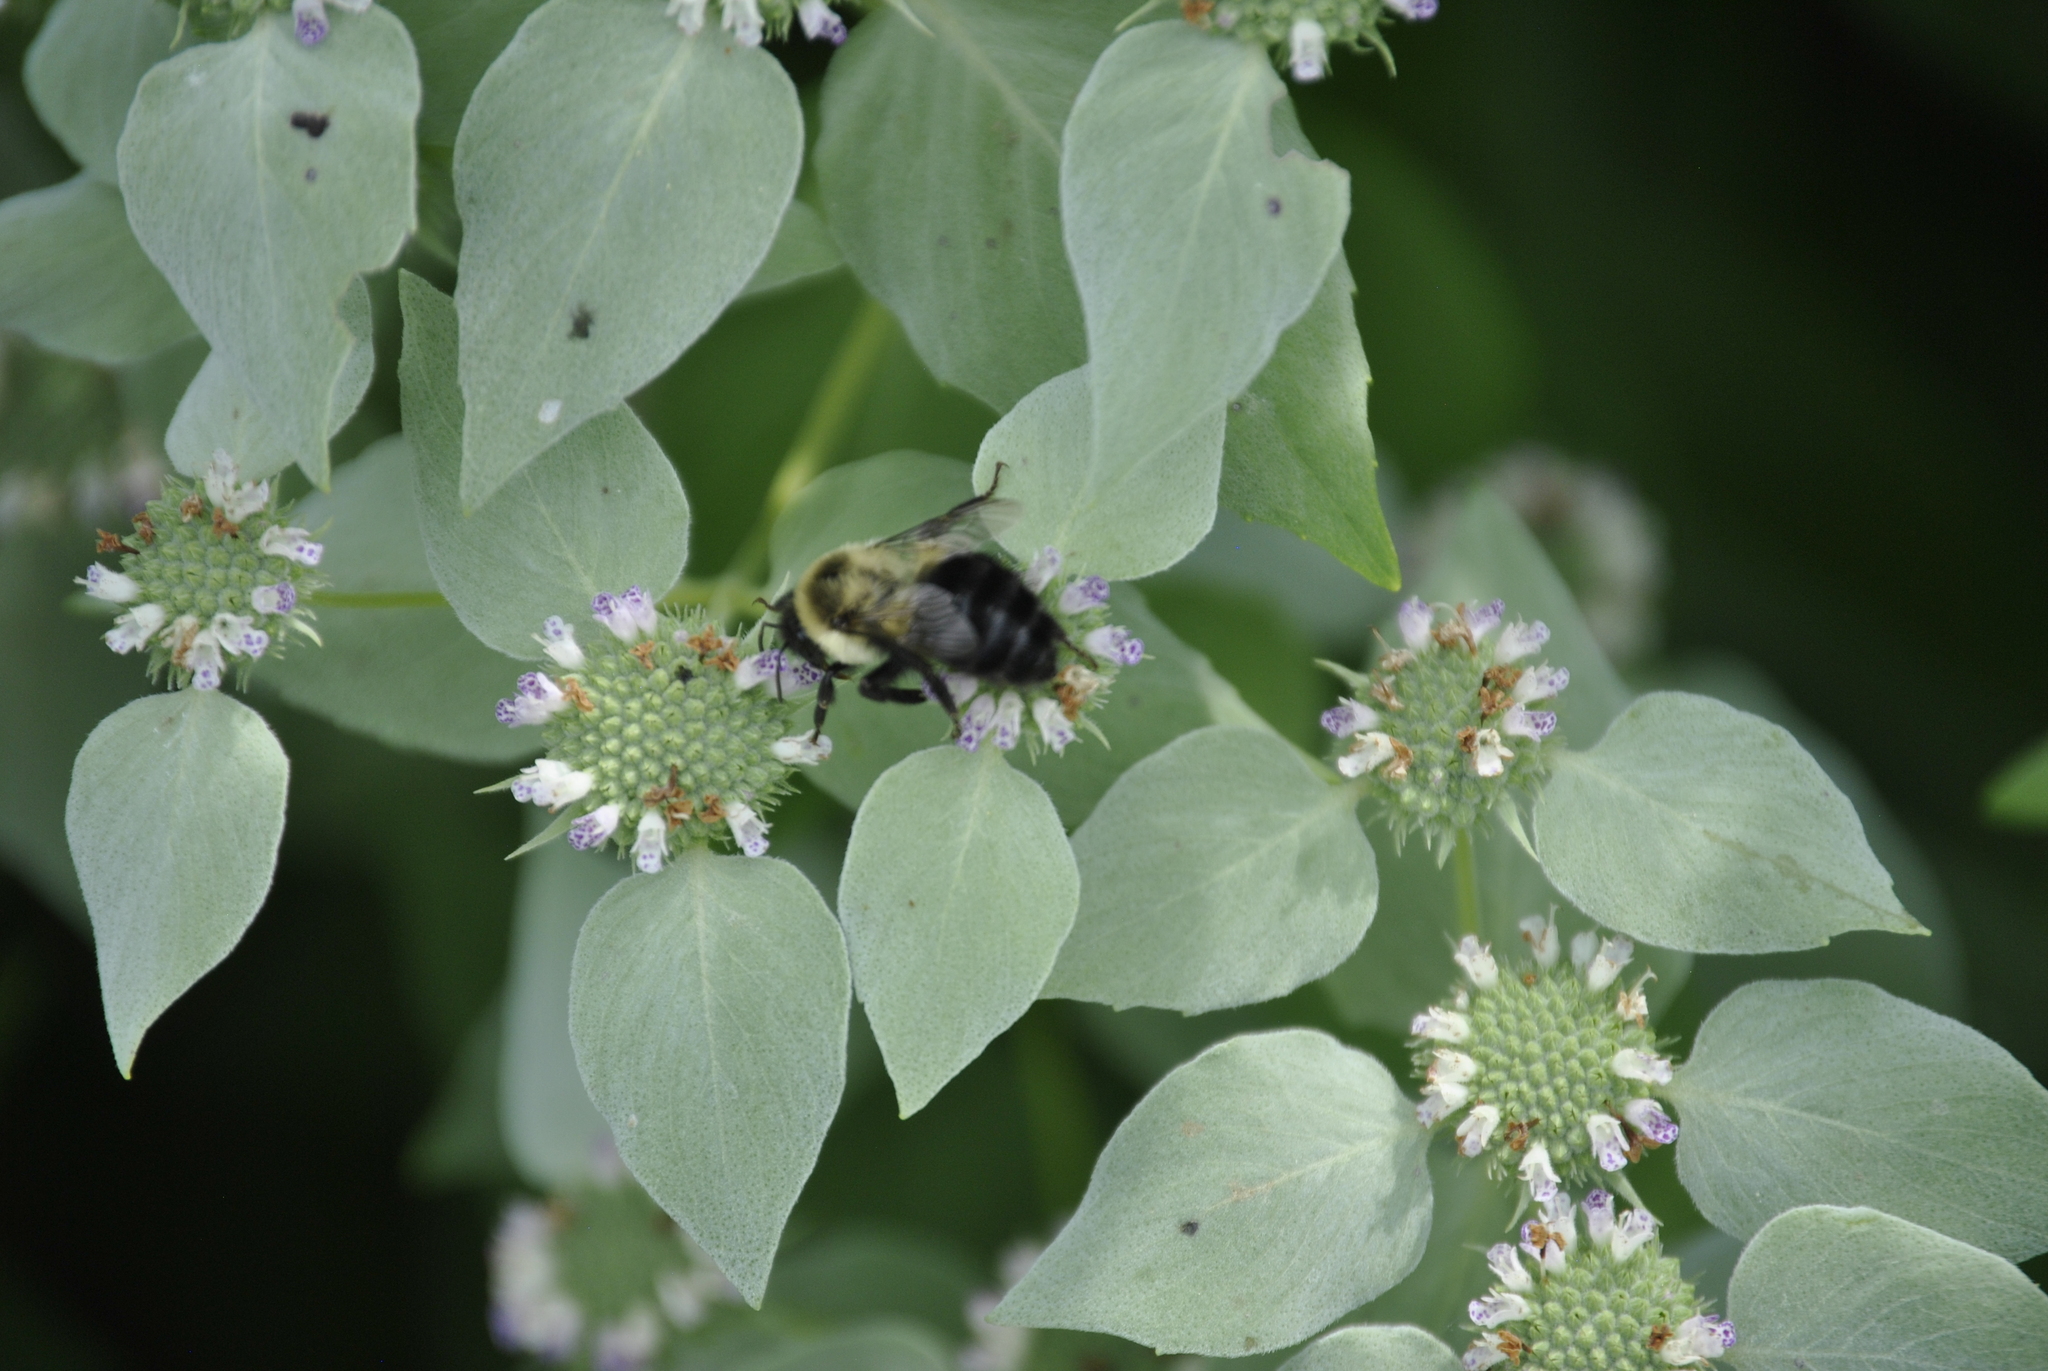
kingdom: Animalia
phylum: Arthropoda
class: Insecta
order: Hymenoptera
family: Apidae
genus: Bombus
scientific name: Bombus impatiens
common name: Common eastern bumble bee
